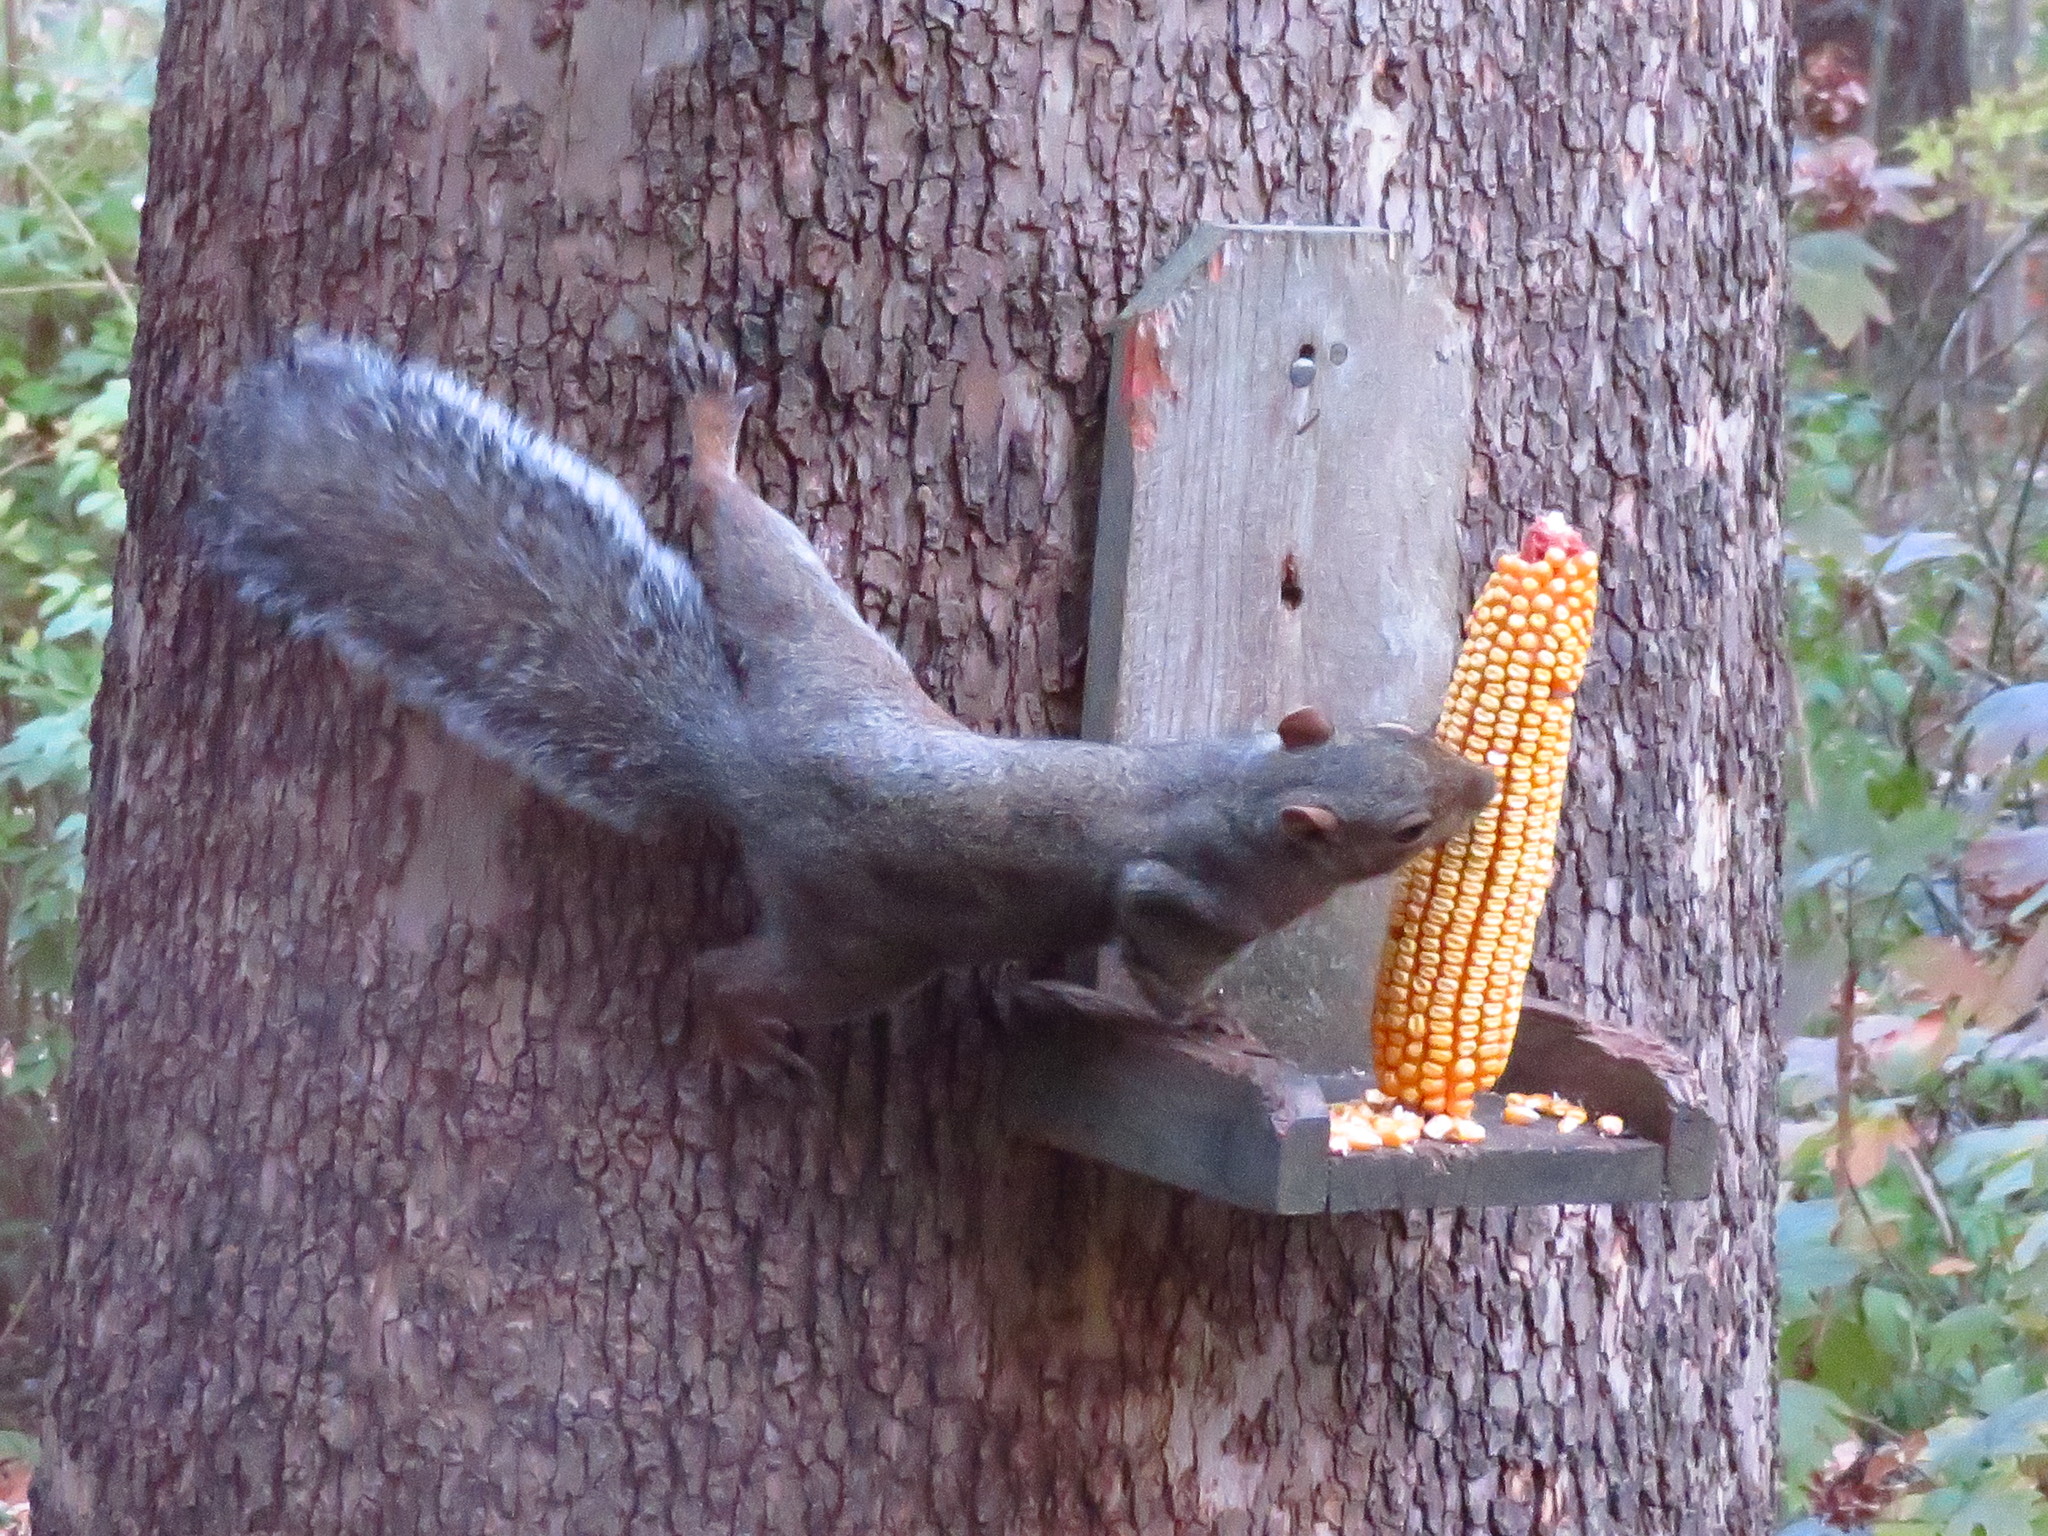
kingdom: Animalia
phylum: Chordata
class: Mammalia
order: Rodentia
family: Sciuridae
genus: Sciurus
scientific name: Sciurus carolinensis
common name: Eastern gray squirrel
